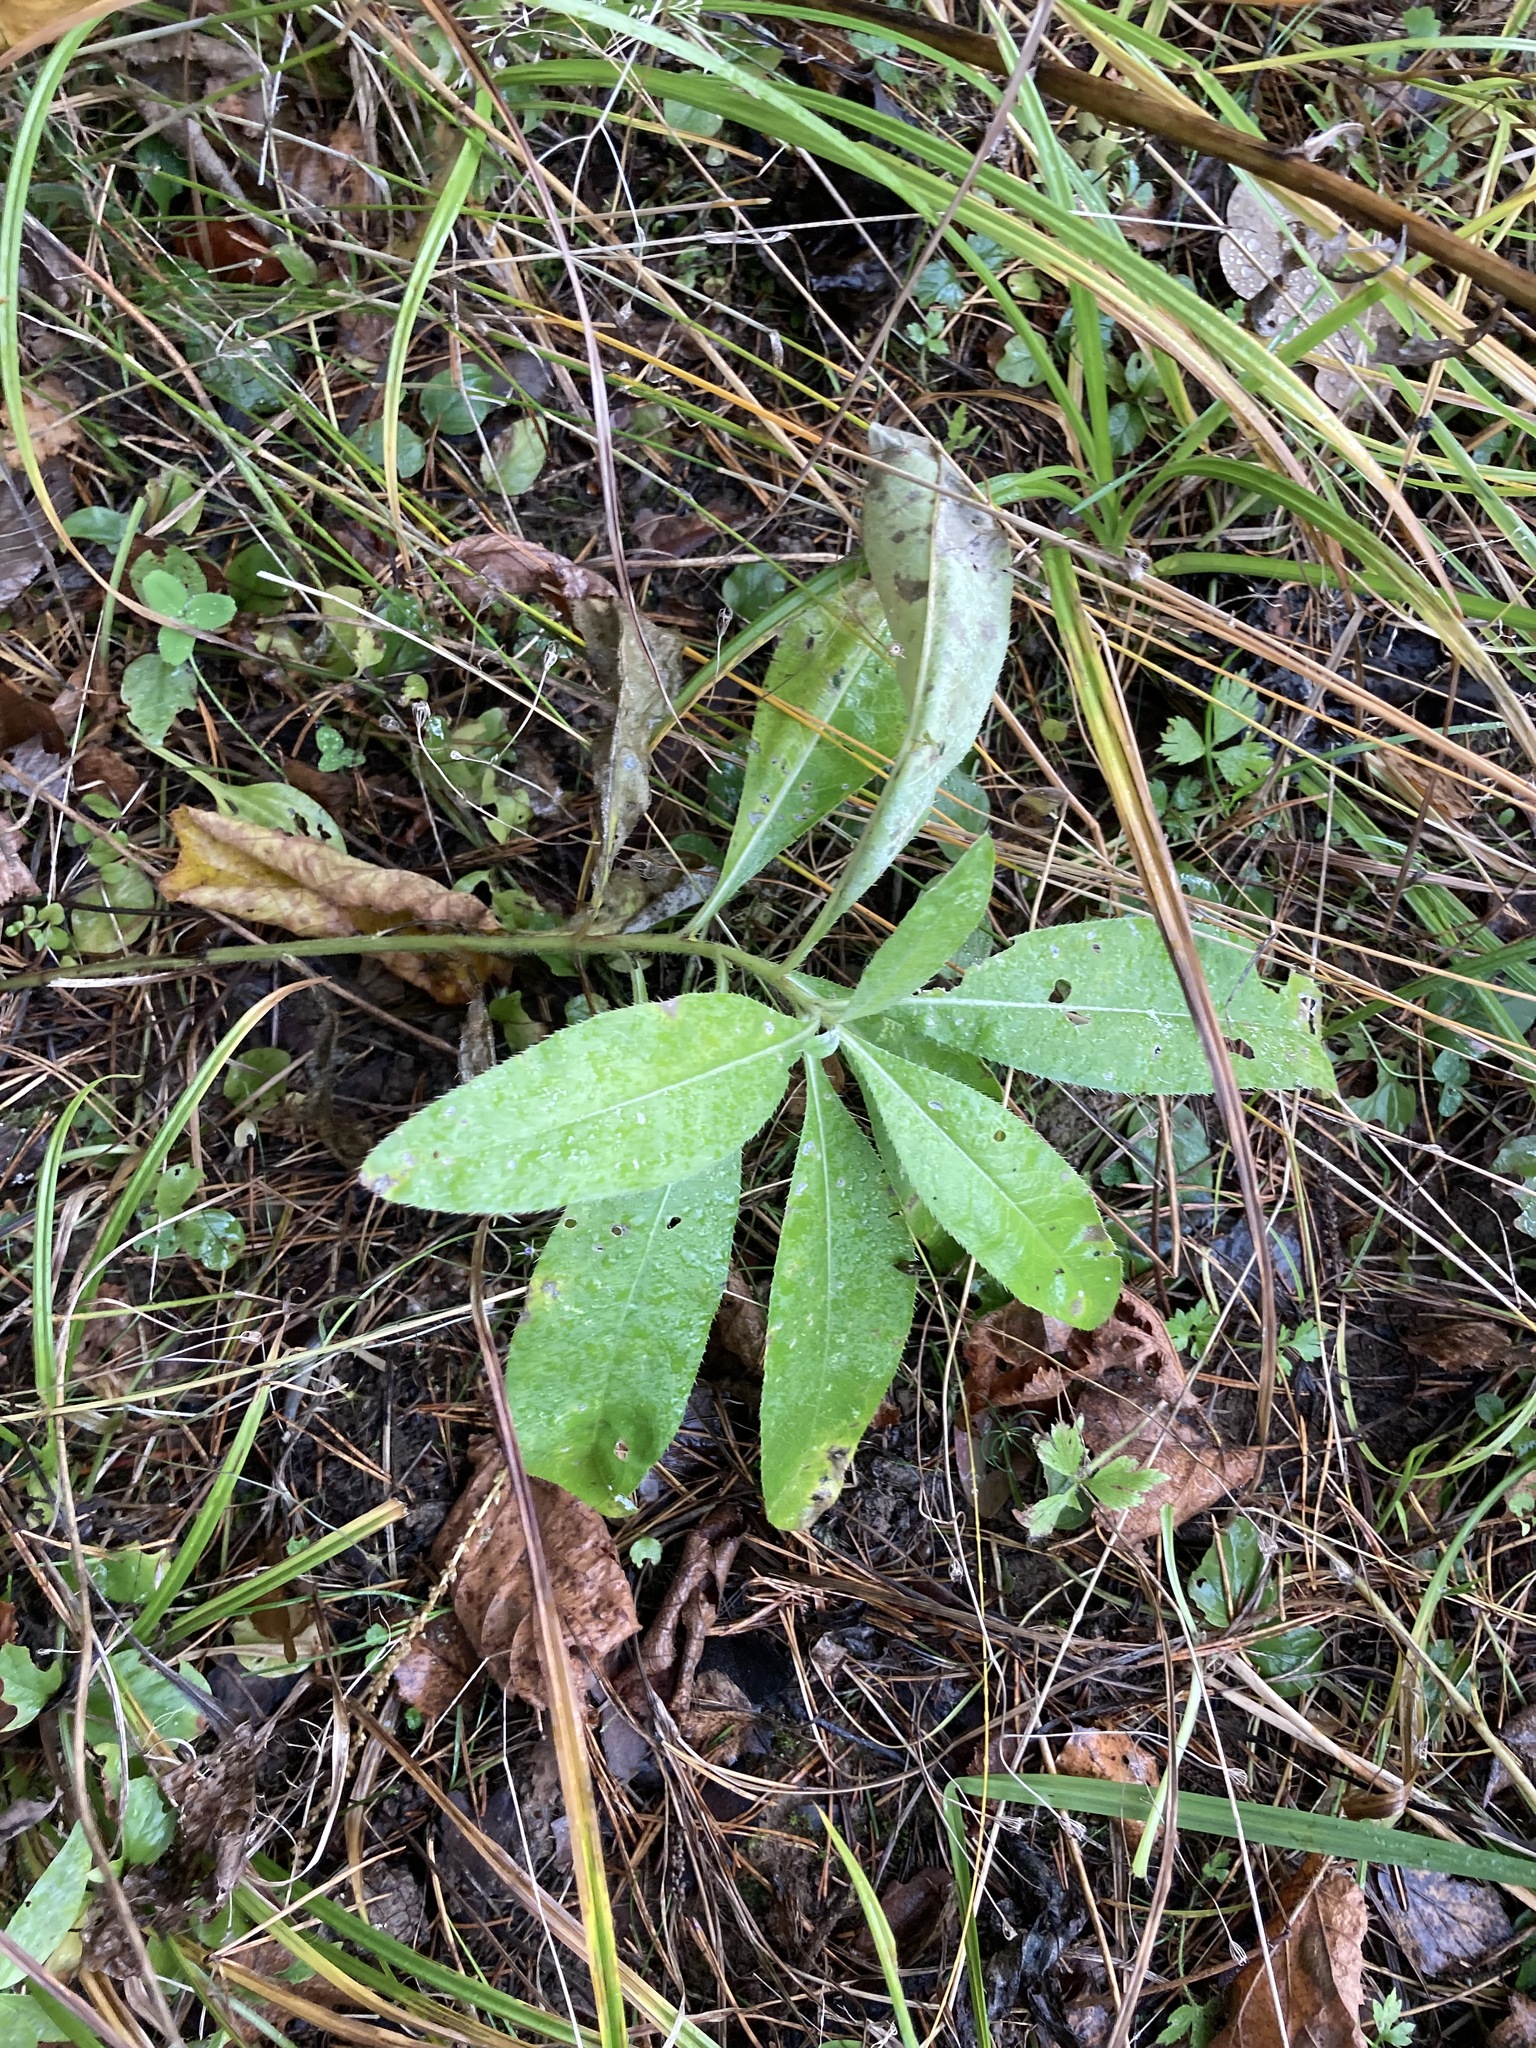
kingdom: Plantae
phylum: Tracheophyta
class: Magnoliopsida
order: Asterales
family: Asteraceae
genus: Cirsium
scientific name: Cirsium arvense
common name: Creeping thistle
